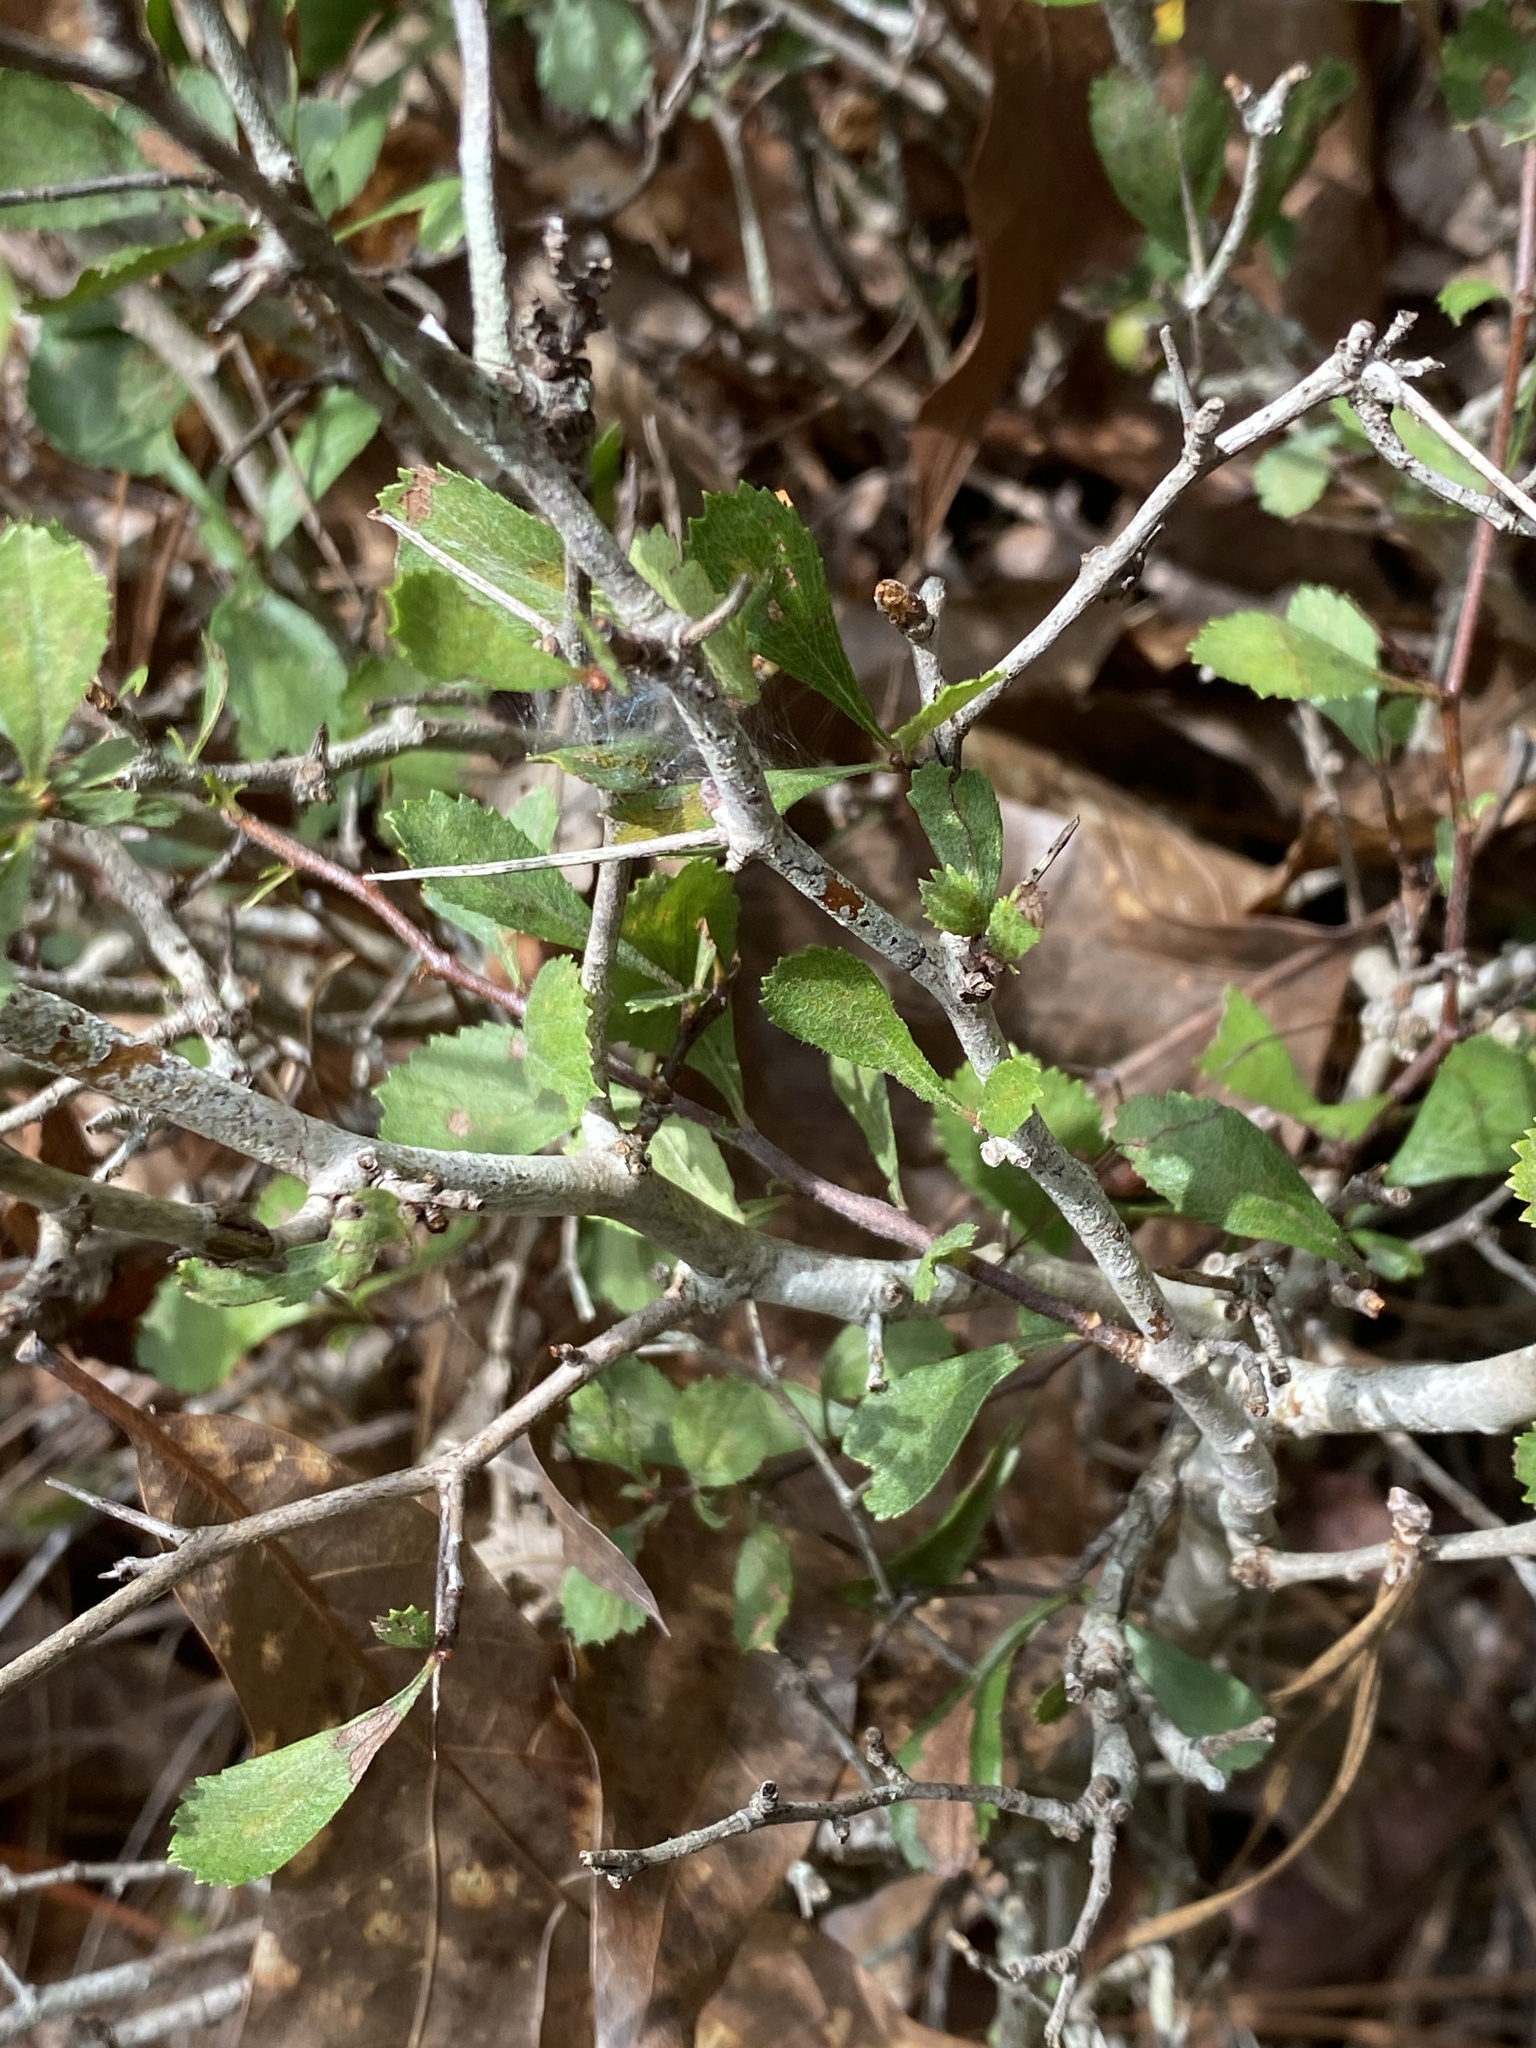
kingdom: Plantae
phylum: Tracheophyta
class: Magnoliopsida
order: Rosales
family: Rosaceae
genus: Crataegus
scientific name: Crataegus munda
